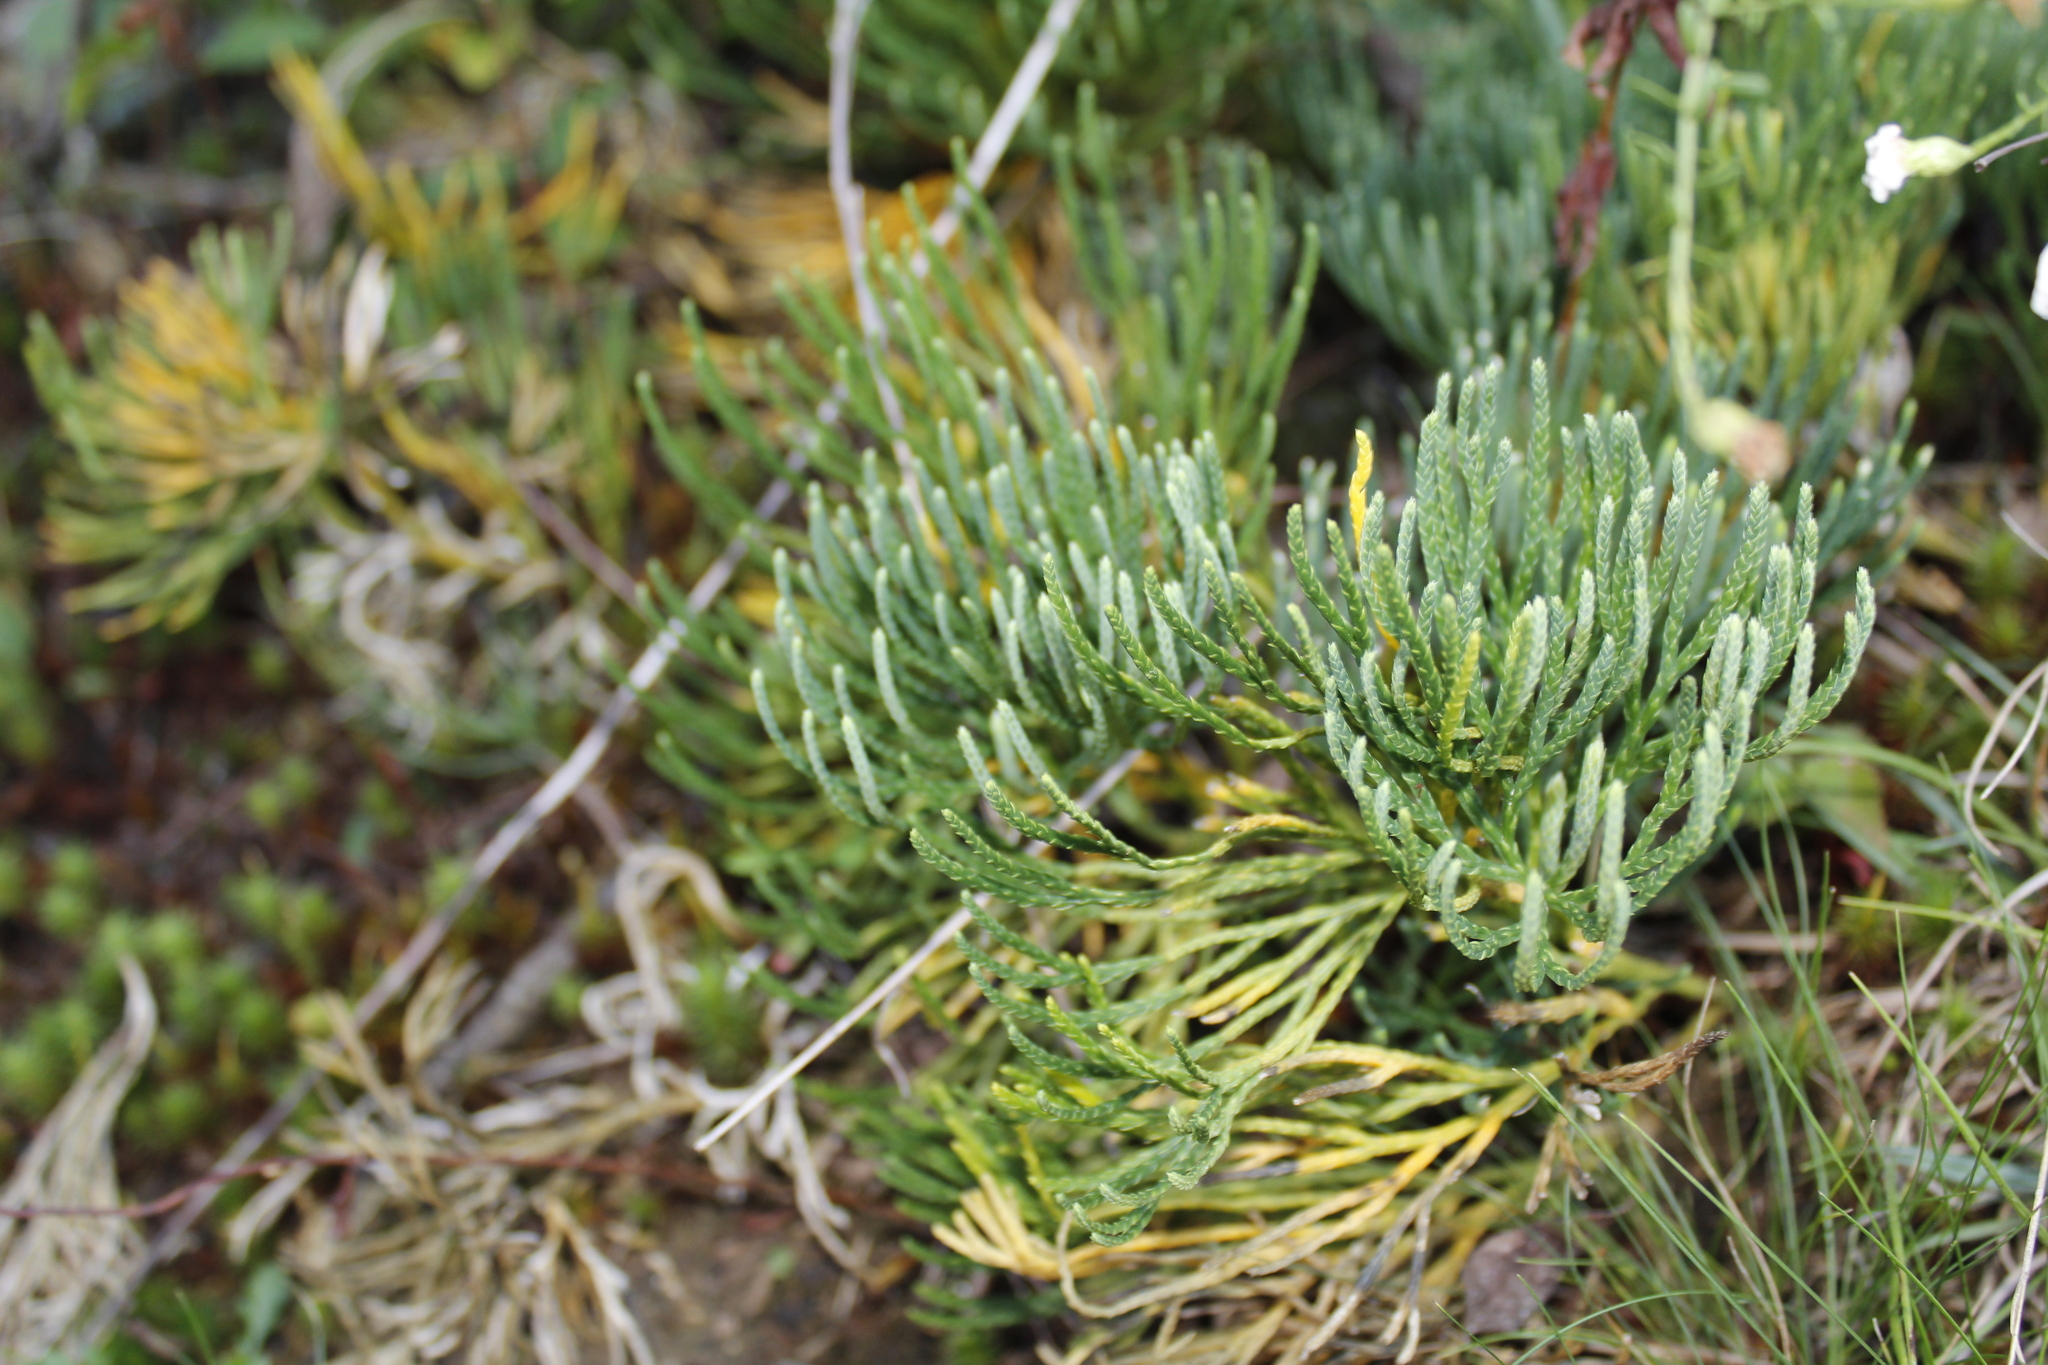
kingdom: Plantae
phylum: Tracheophyta
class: Lycopodiopsida
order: Lycopodiales
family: Lycopodiaceae
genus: Diphasiastrum
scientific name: Diphasiastrum tristachyum
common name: Blue ground-cedar
